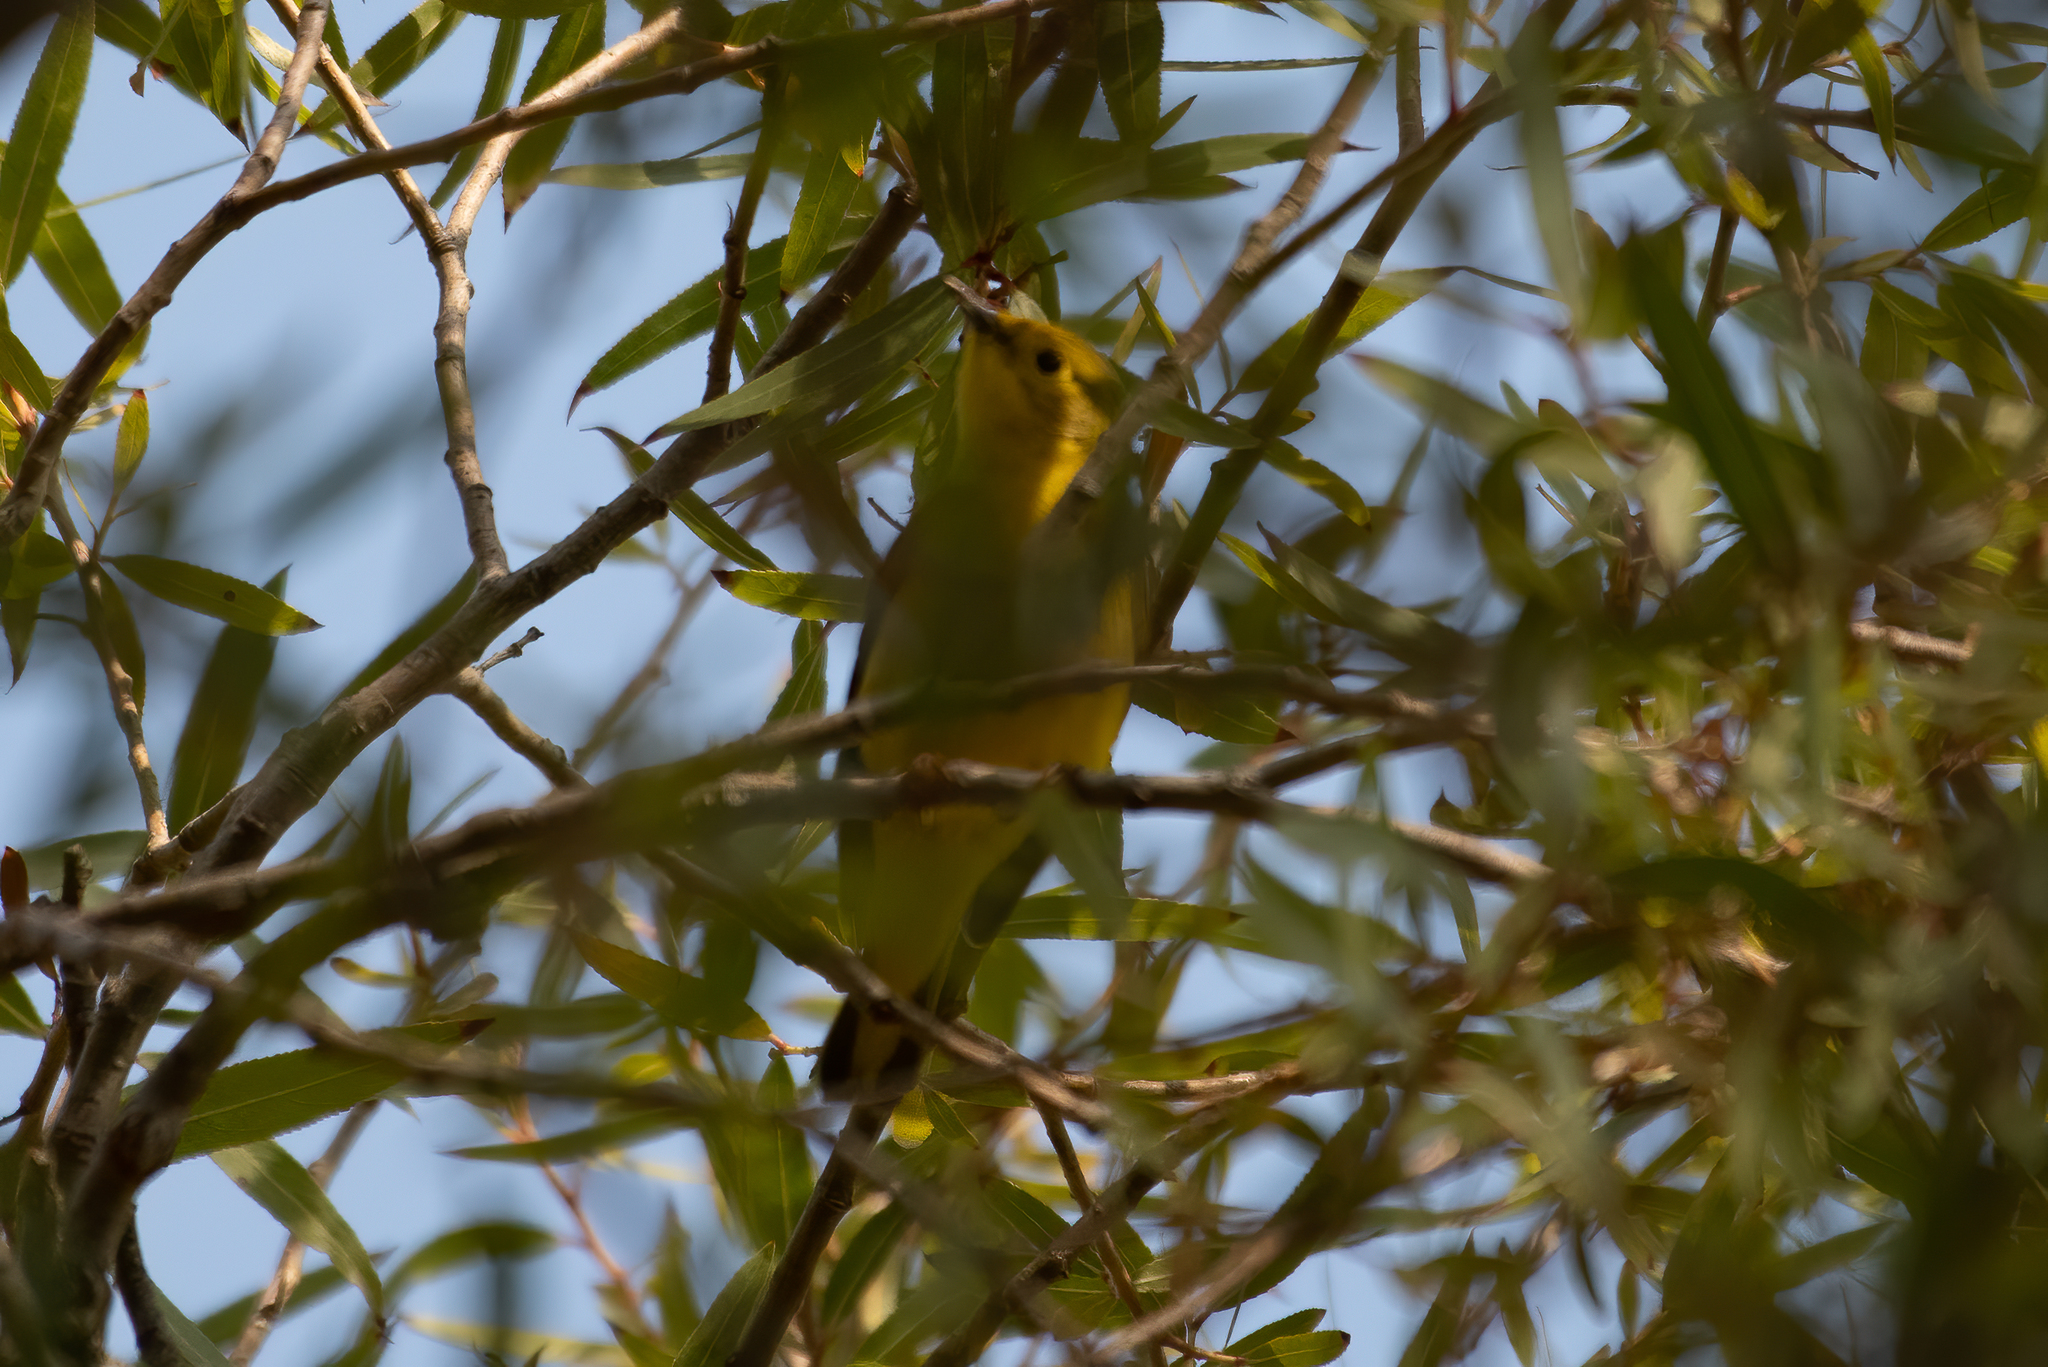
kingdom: Animalia
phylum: Chordata
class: Aves
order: Passeriformes
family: Parulidae
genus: Cardellina
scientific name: Cardellina pusilla
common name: Wilson's warbler
